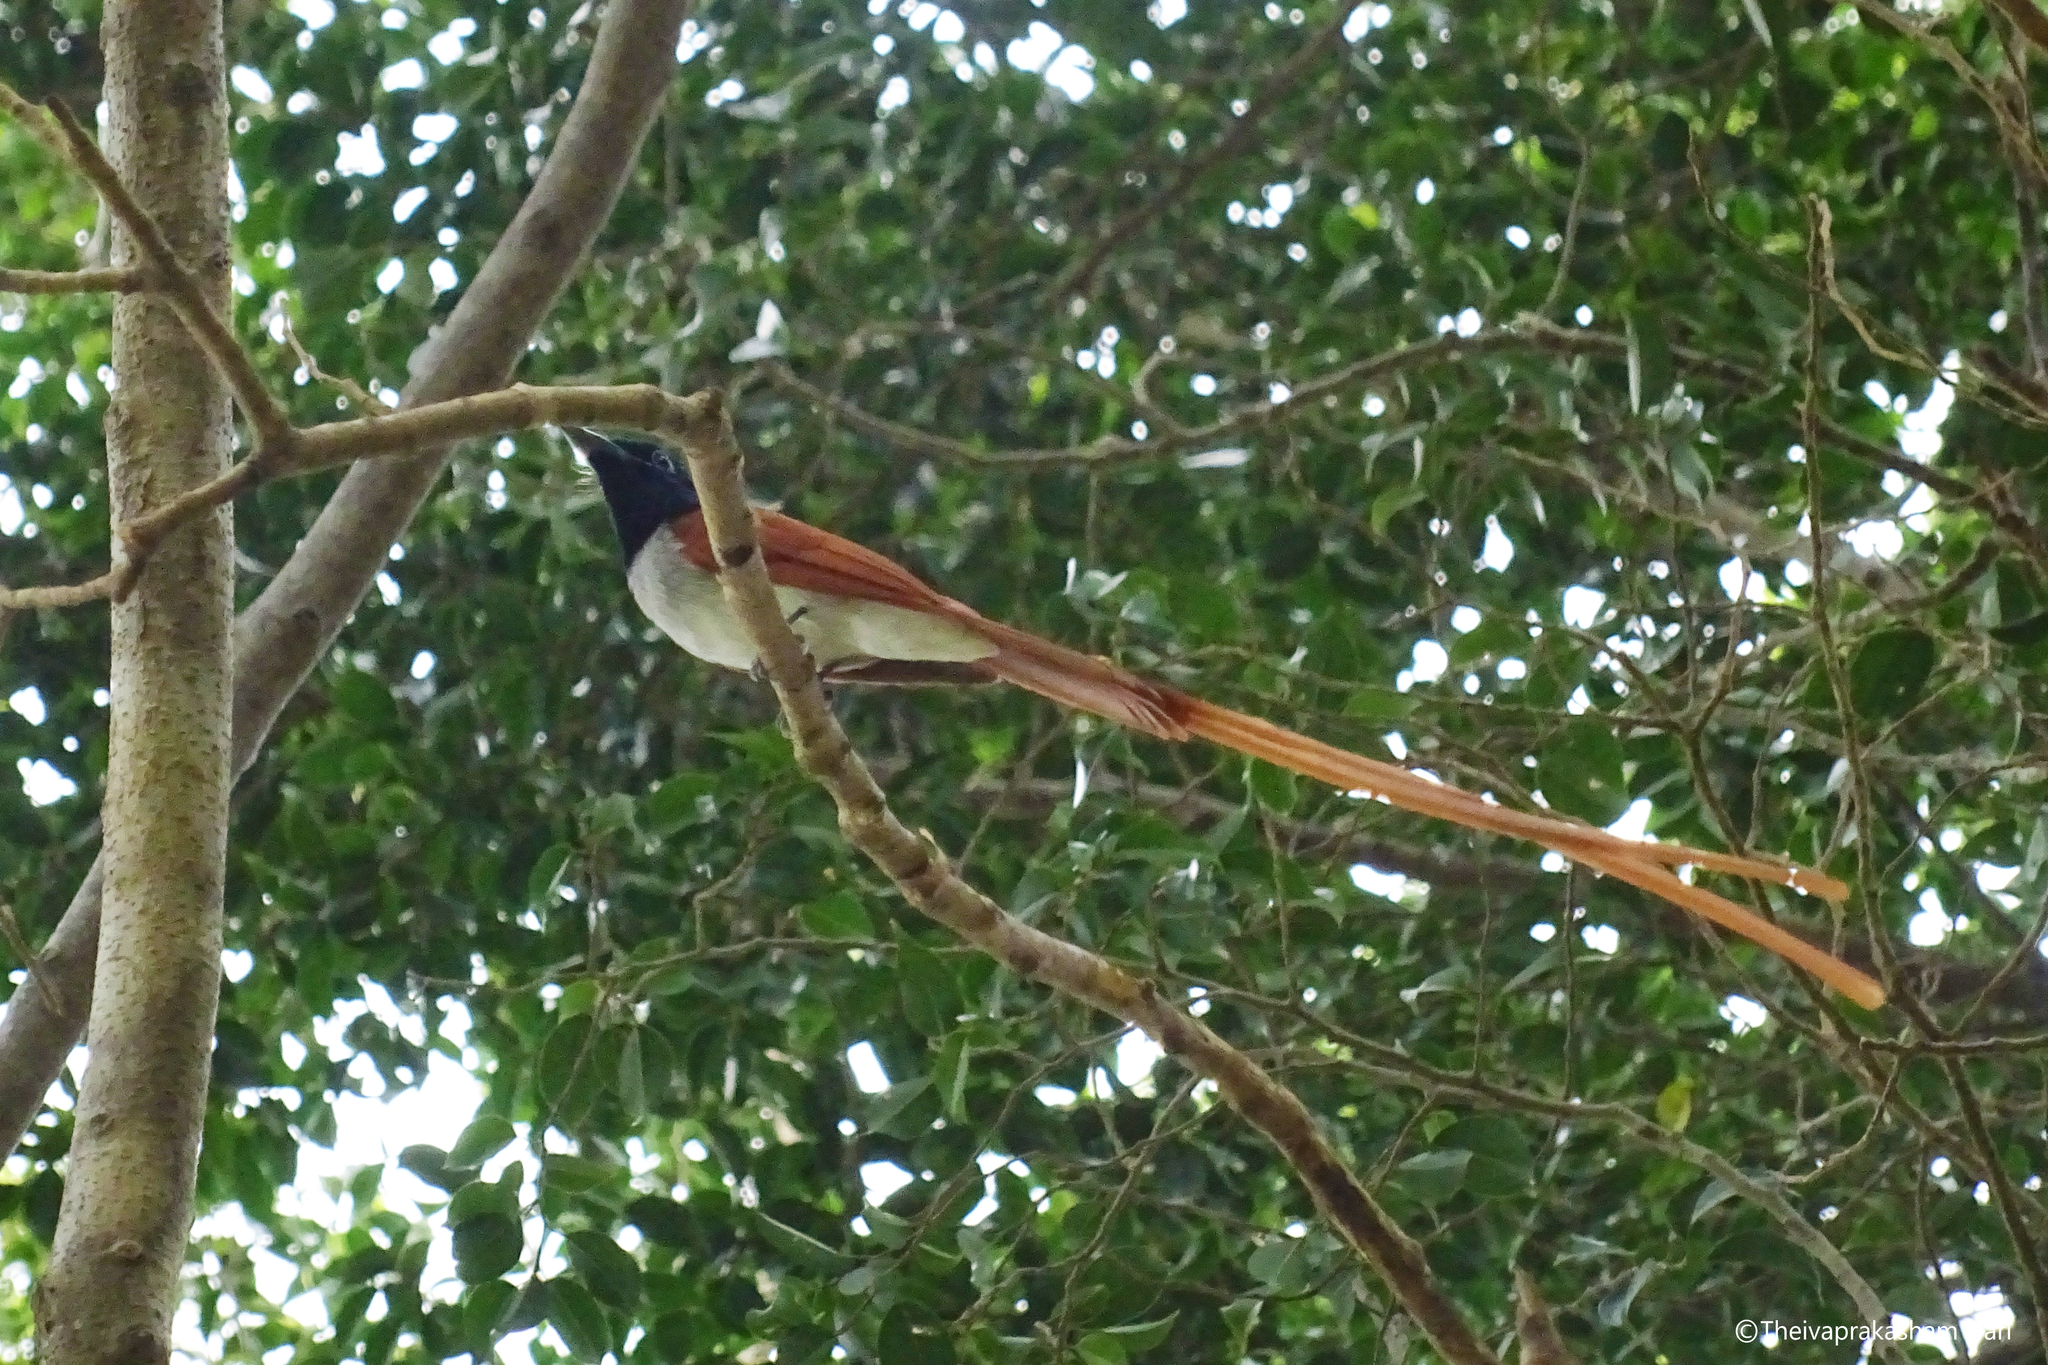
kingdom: Animalia
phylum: Chordata
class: Aves
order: Passeriformes
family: Monarchidae
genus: Terpsiphone
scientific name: Terpsiphone paradisi
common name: Indian paradise flycatcher
